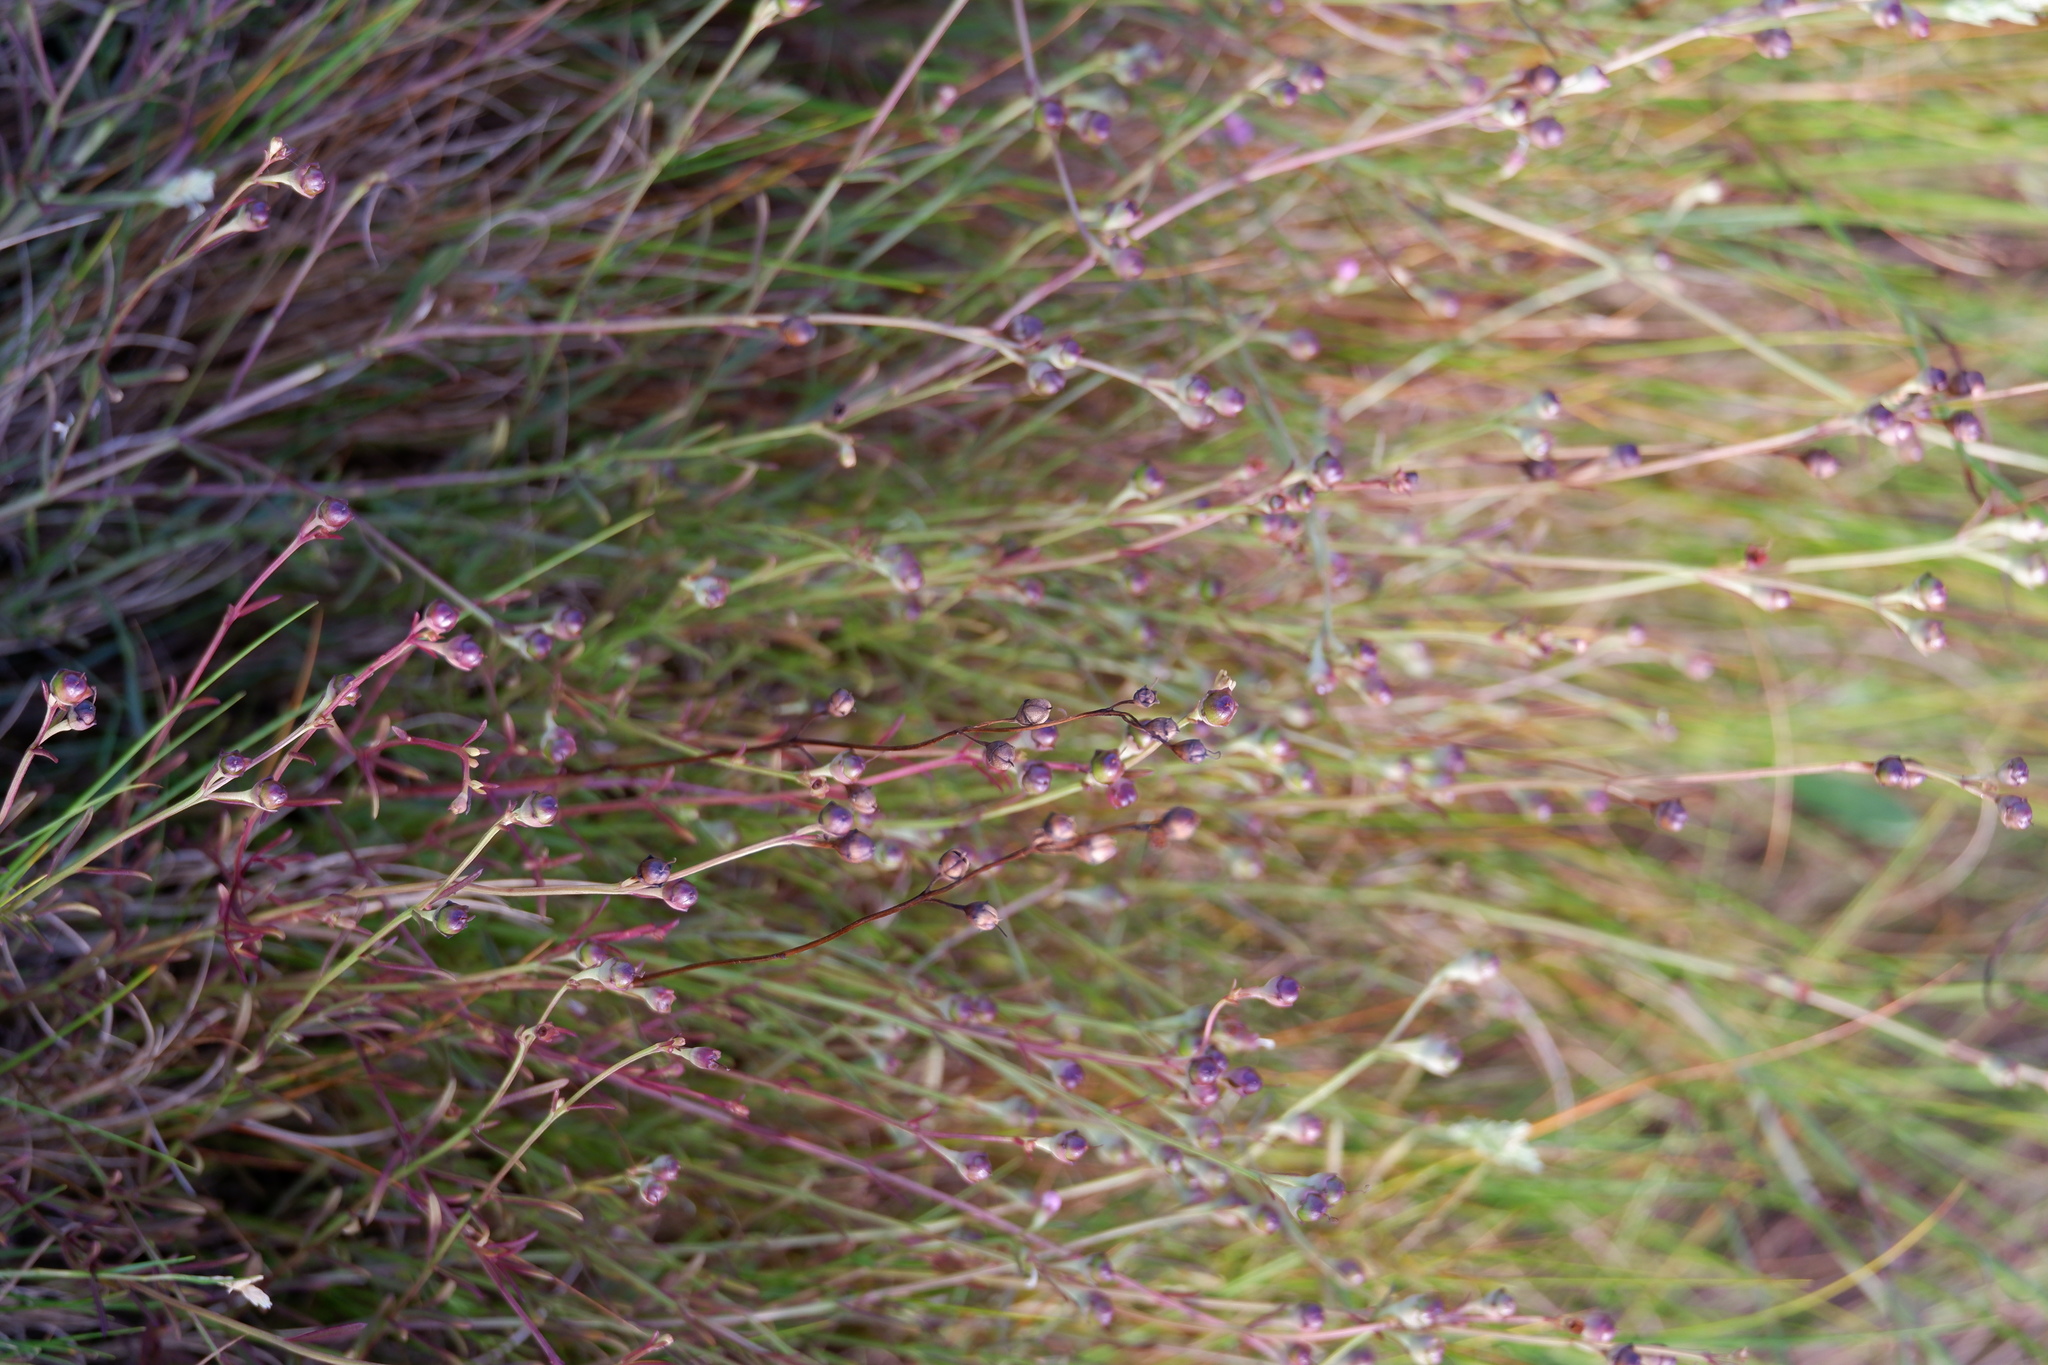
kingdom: Plantae
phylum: Tracheophyta
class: Magnoliopsida
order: Lamiales
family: Orobanchaceae
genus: Agalinis
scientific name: Agalinis maritima
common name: Saltmarsh agalinis
